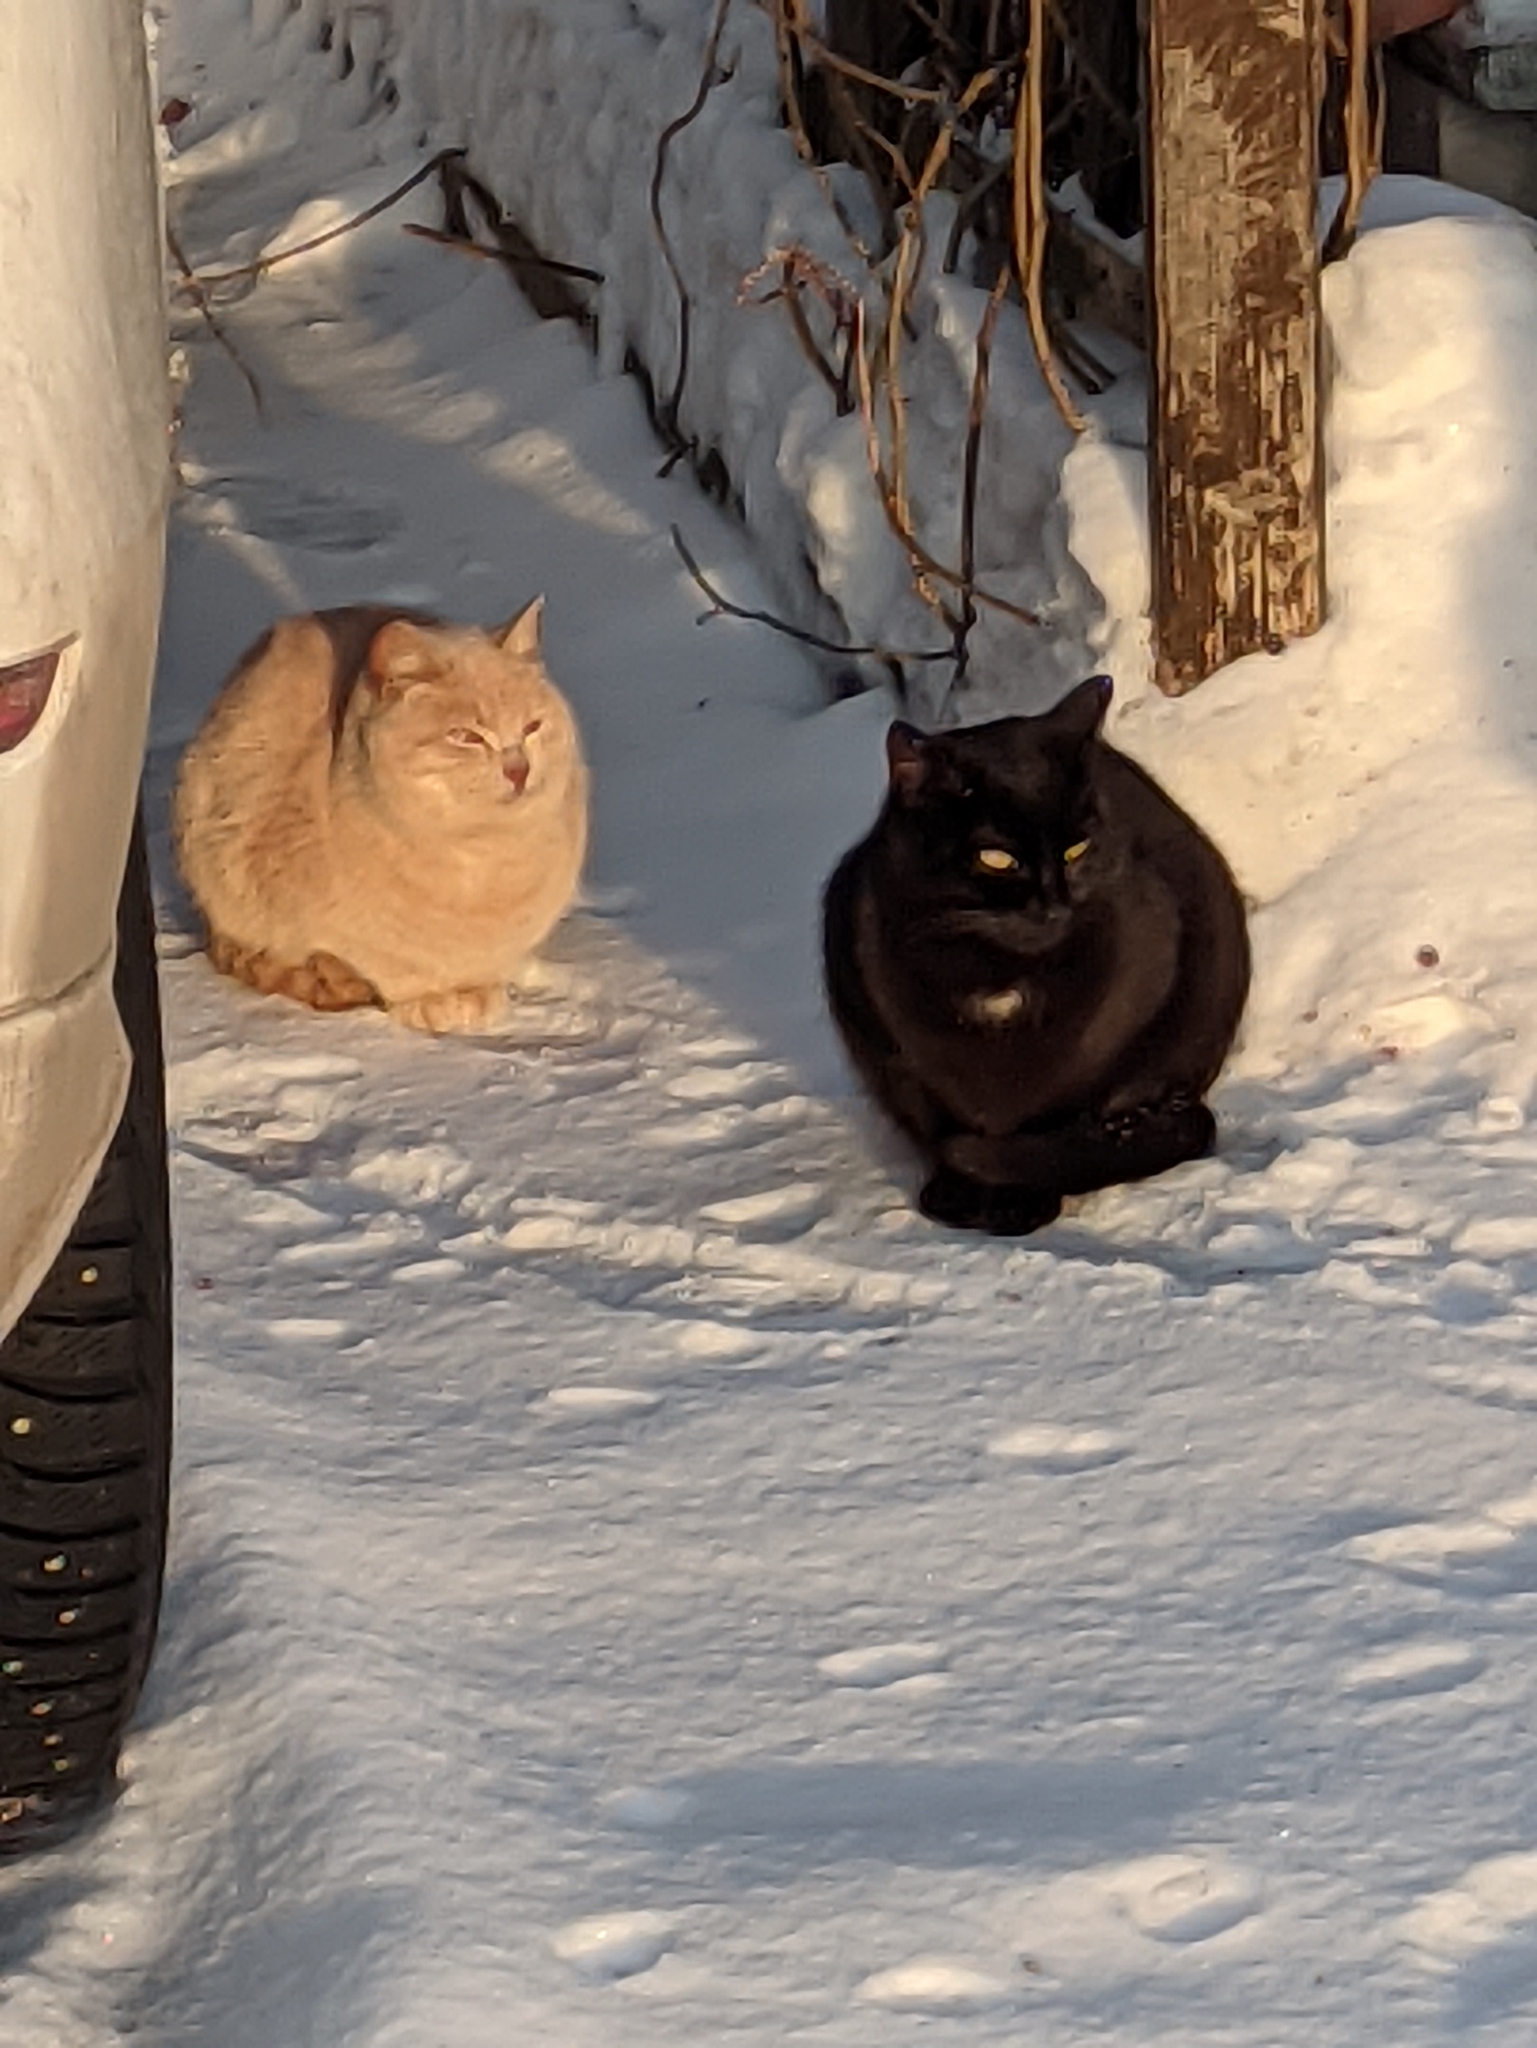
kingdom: Animalia
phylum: Chordata
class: Mammalia
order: Carnivora
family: Felidae
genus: Felis
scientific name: Felis catus
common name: Domestic cat
